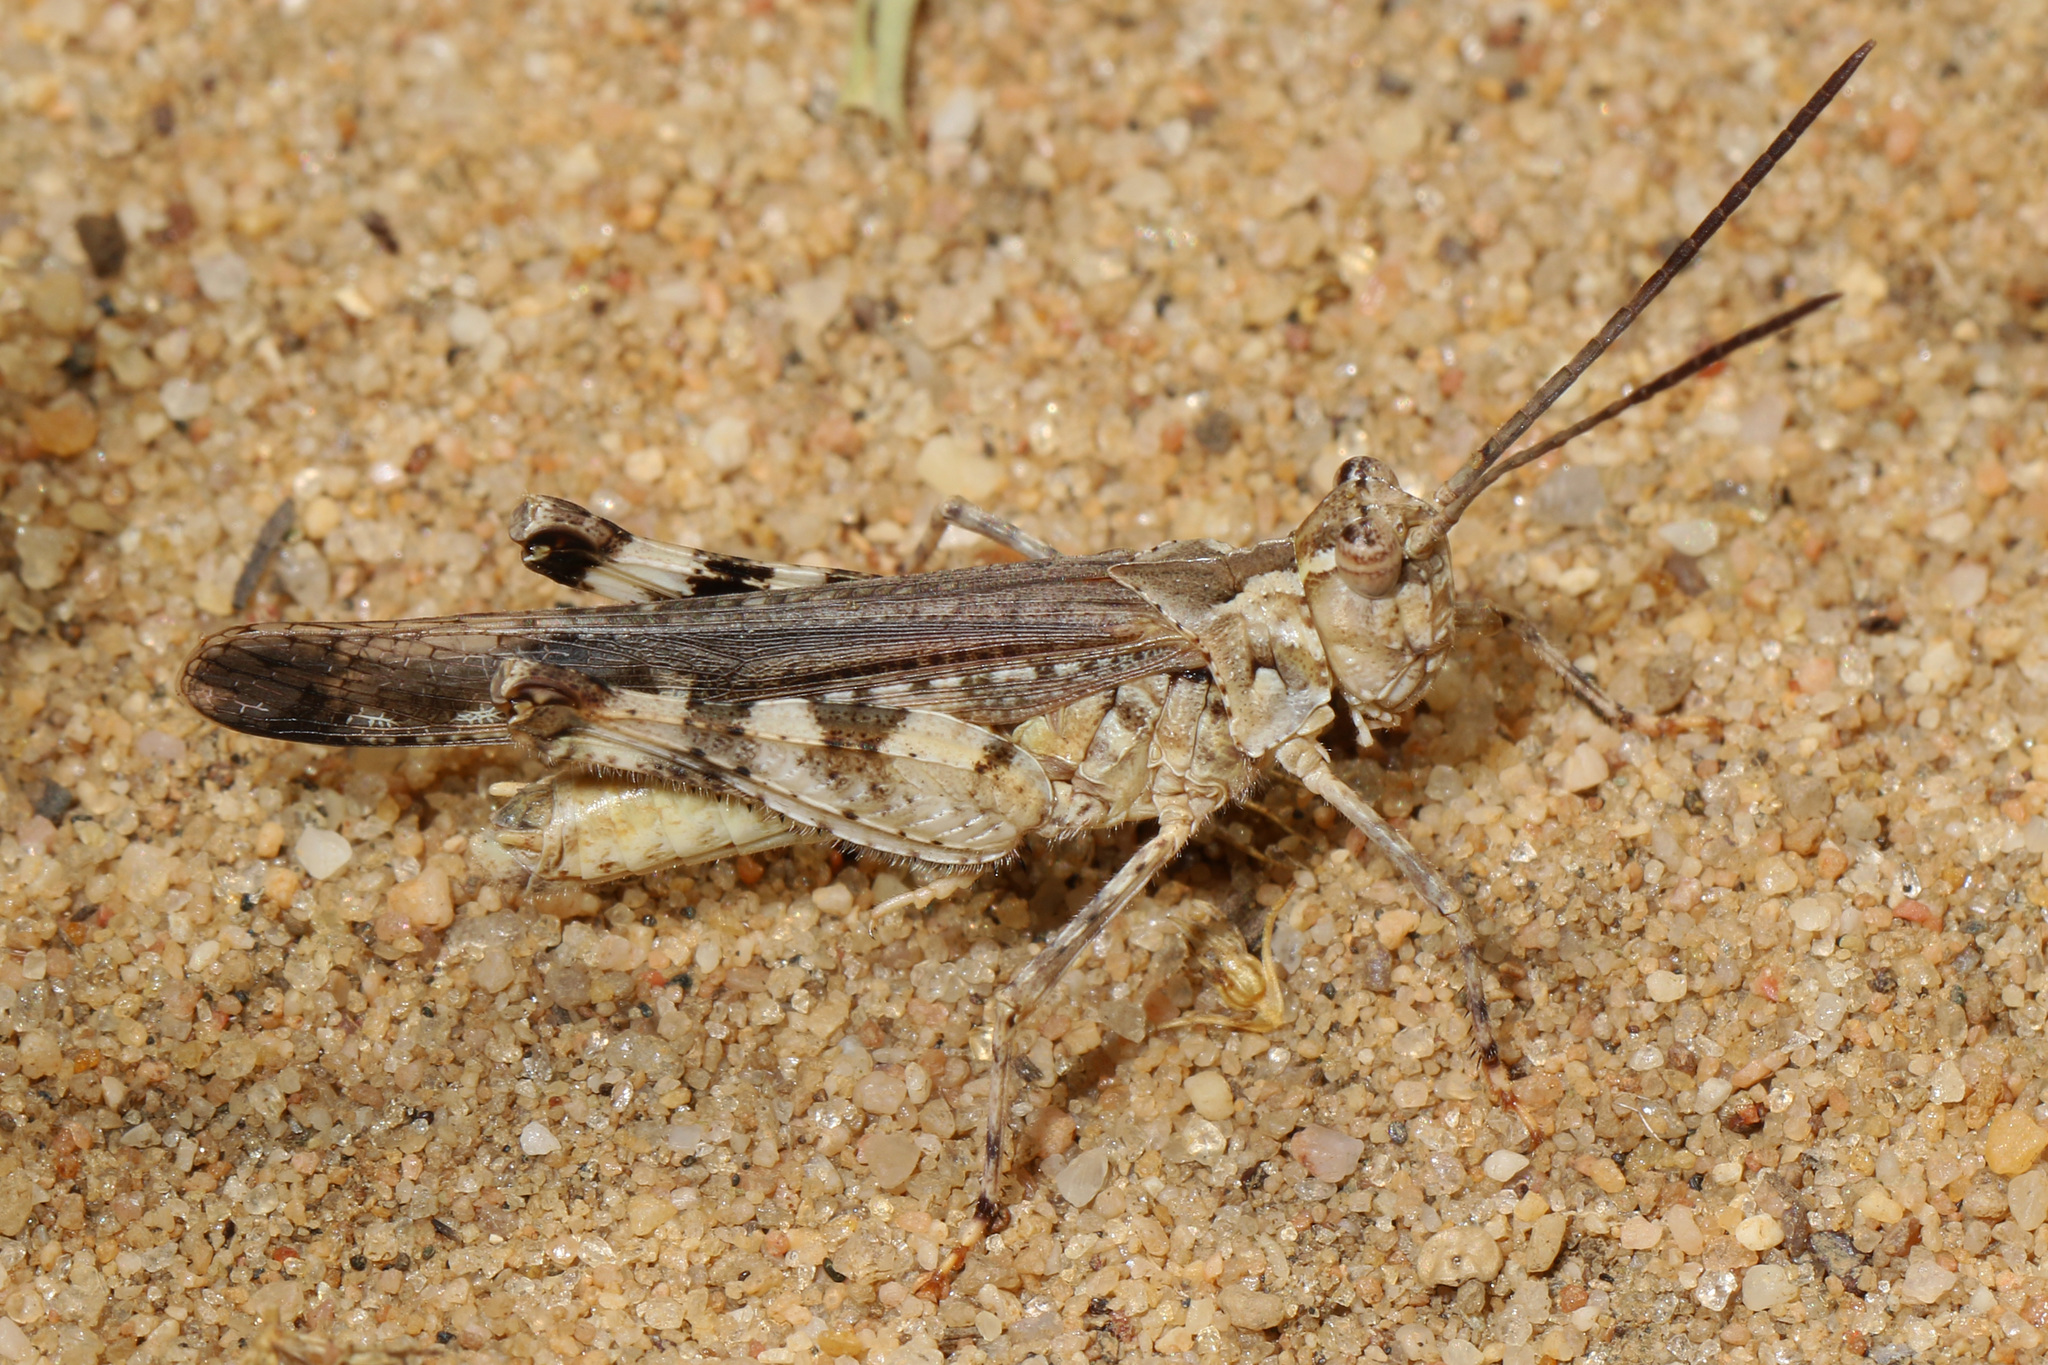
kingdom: Animalia
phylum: Arthropoda
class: Insecta
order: Orthoptera
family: Acrididae
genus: Psinidia
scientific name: Psinidia fenestralis
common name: Long-horned locust
